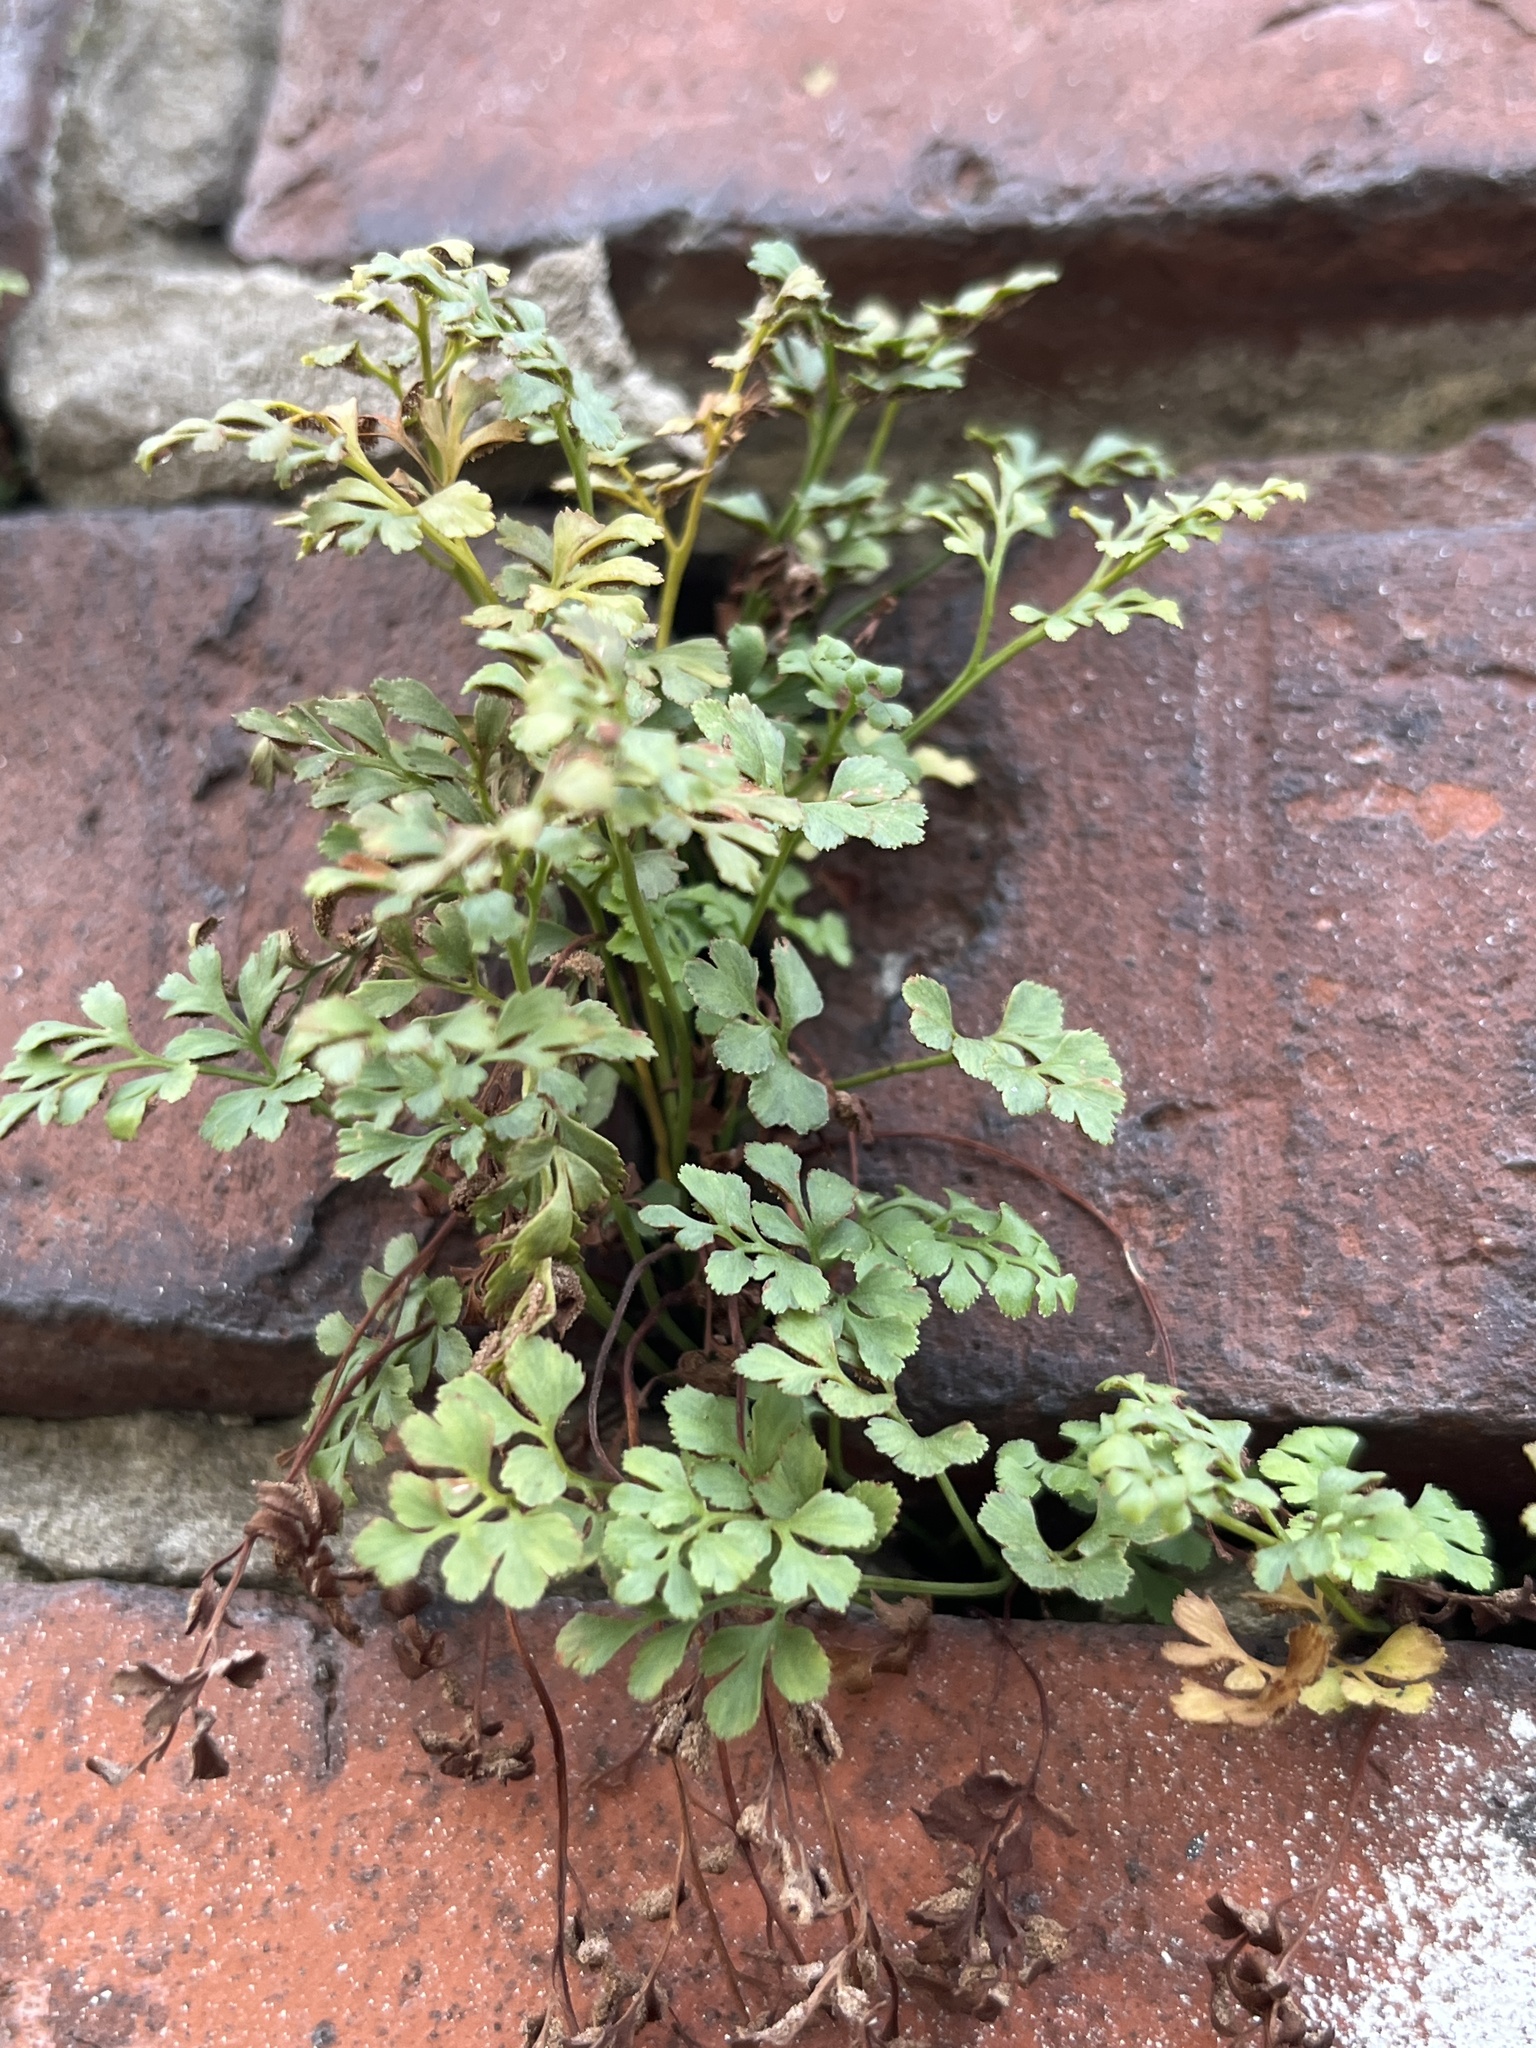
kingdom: Plantae
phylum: Tracheophyta
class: Polypodiopsida
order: Polypodiales
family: Aspleniaceae
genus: Asplenium
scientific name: Asplenium ruta-muraria
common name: Wall-rue
